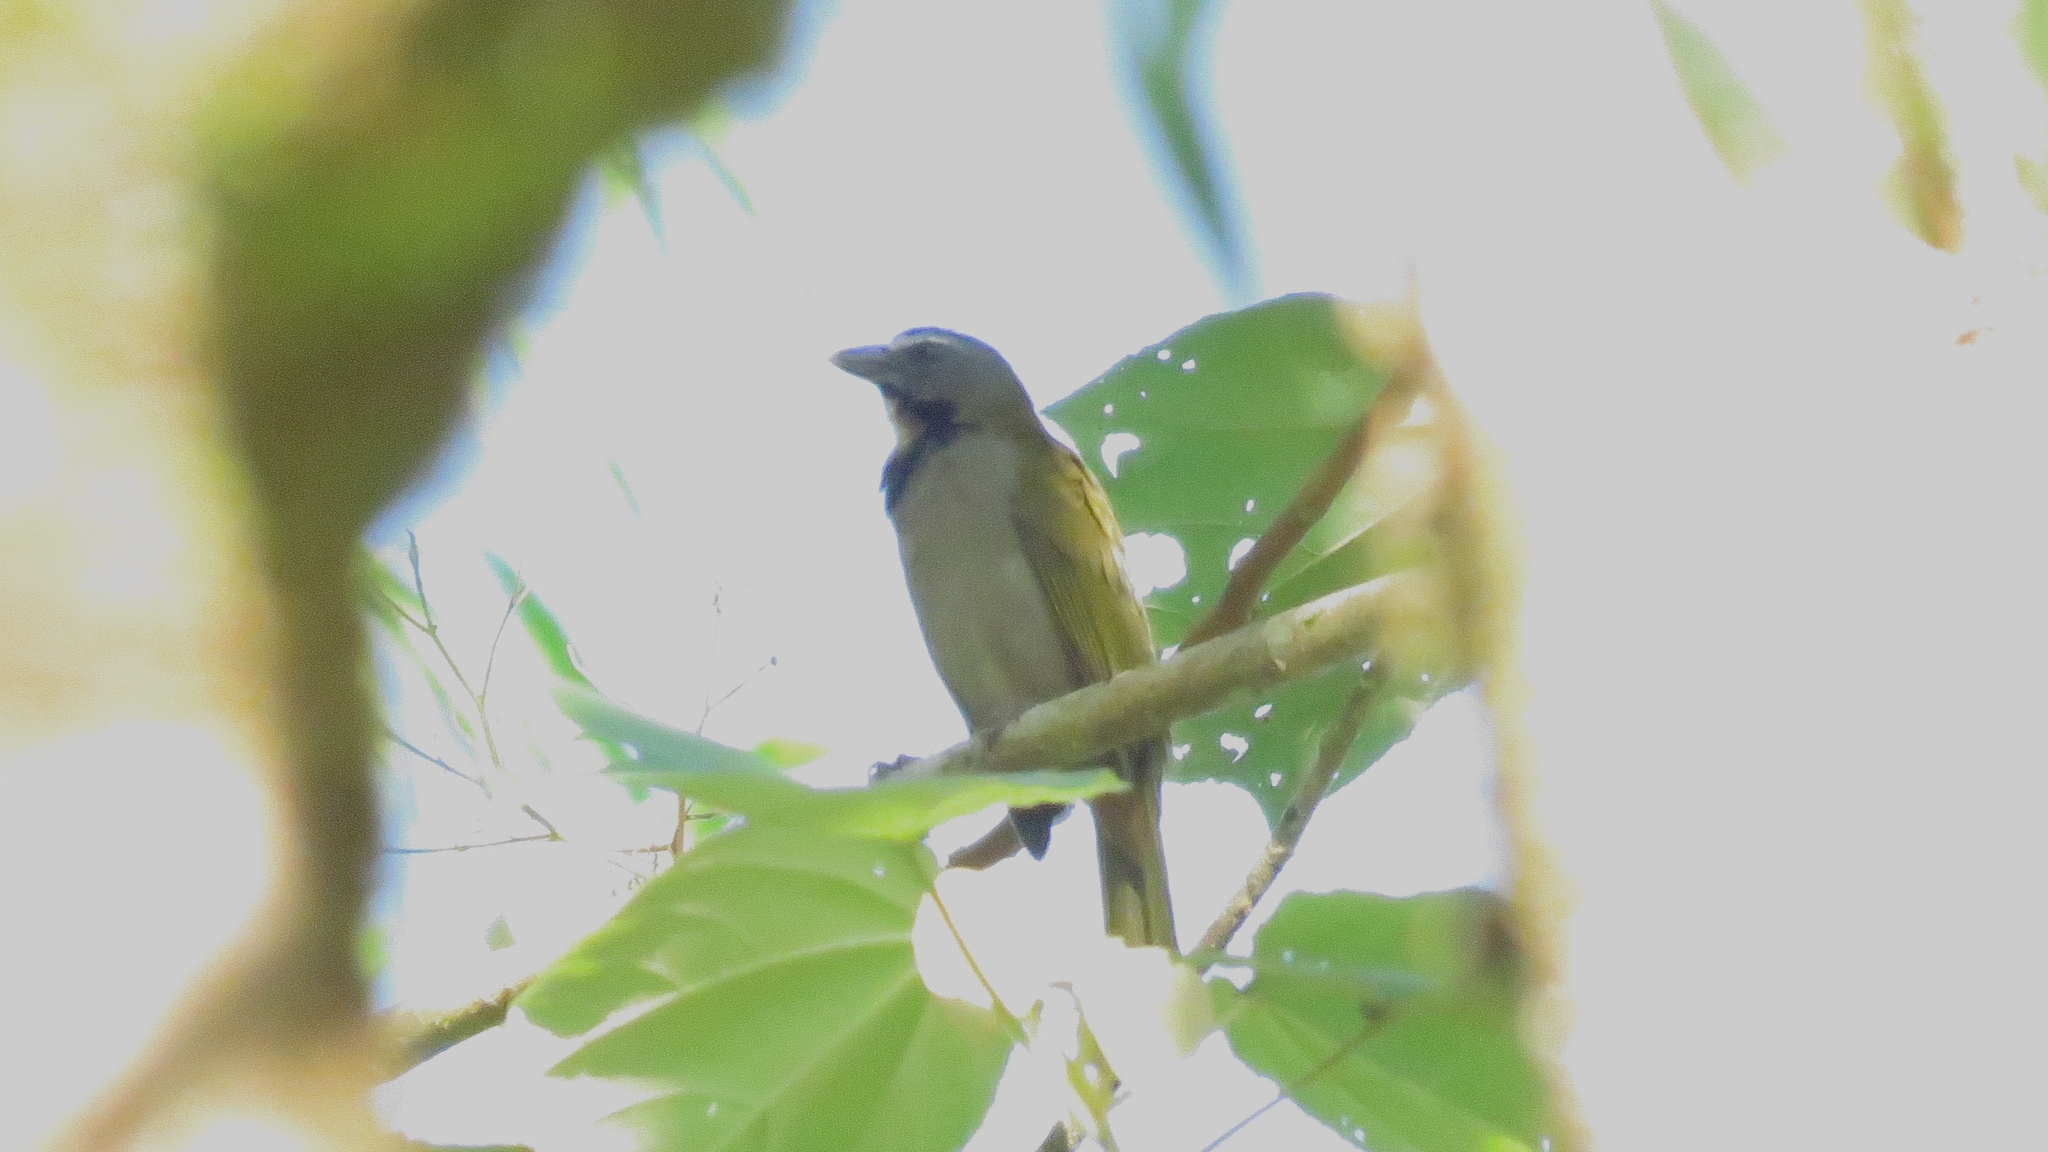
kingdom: Animalia
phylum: Chordata
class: Aves
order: Passeriformes
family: Thraupidae
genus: Saltator
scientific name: Saltator maximus
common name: Buff-throated saltator
